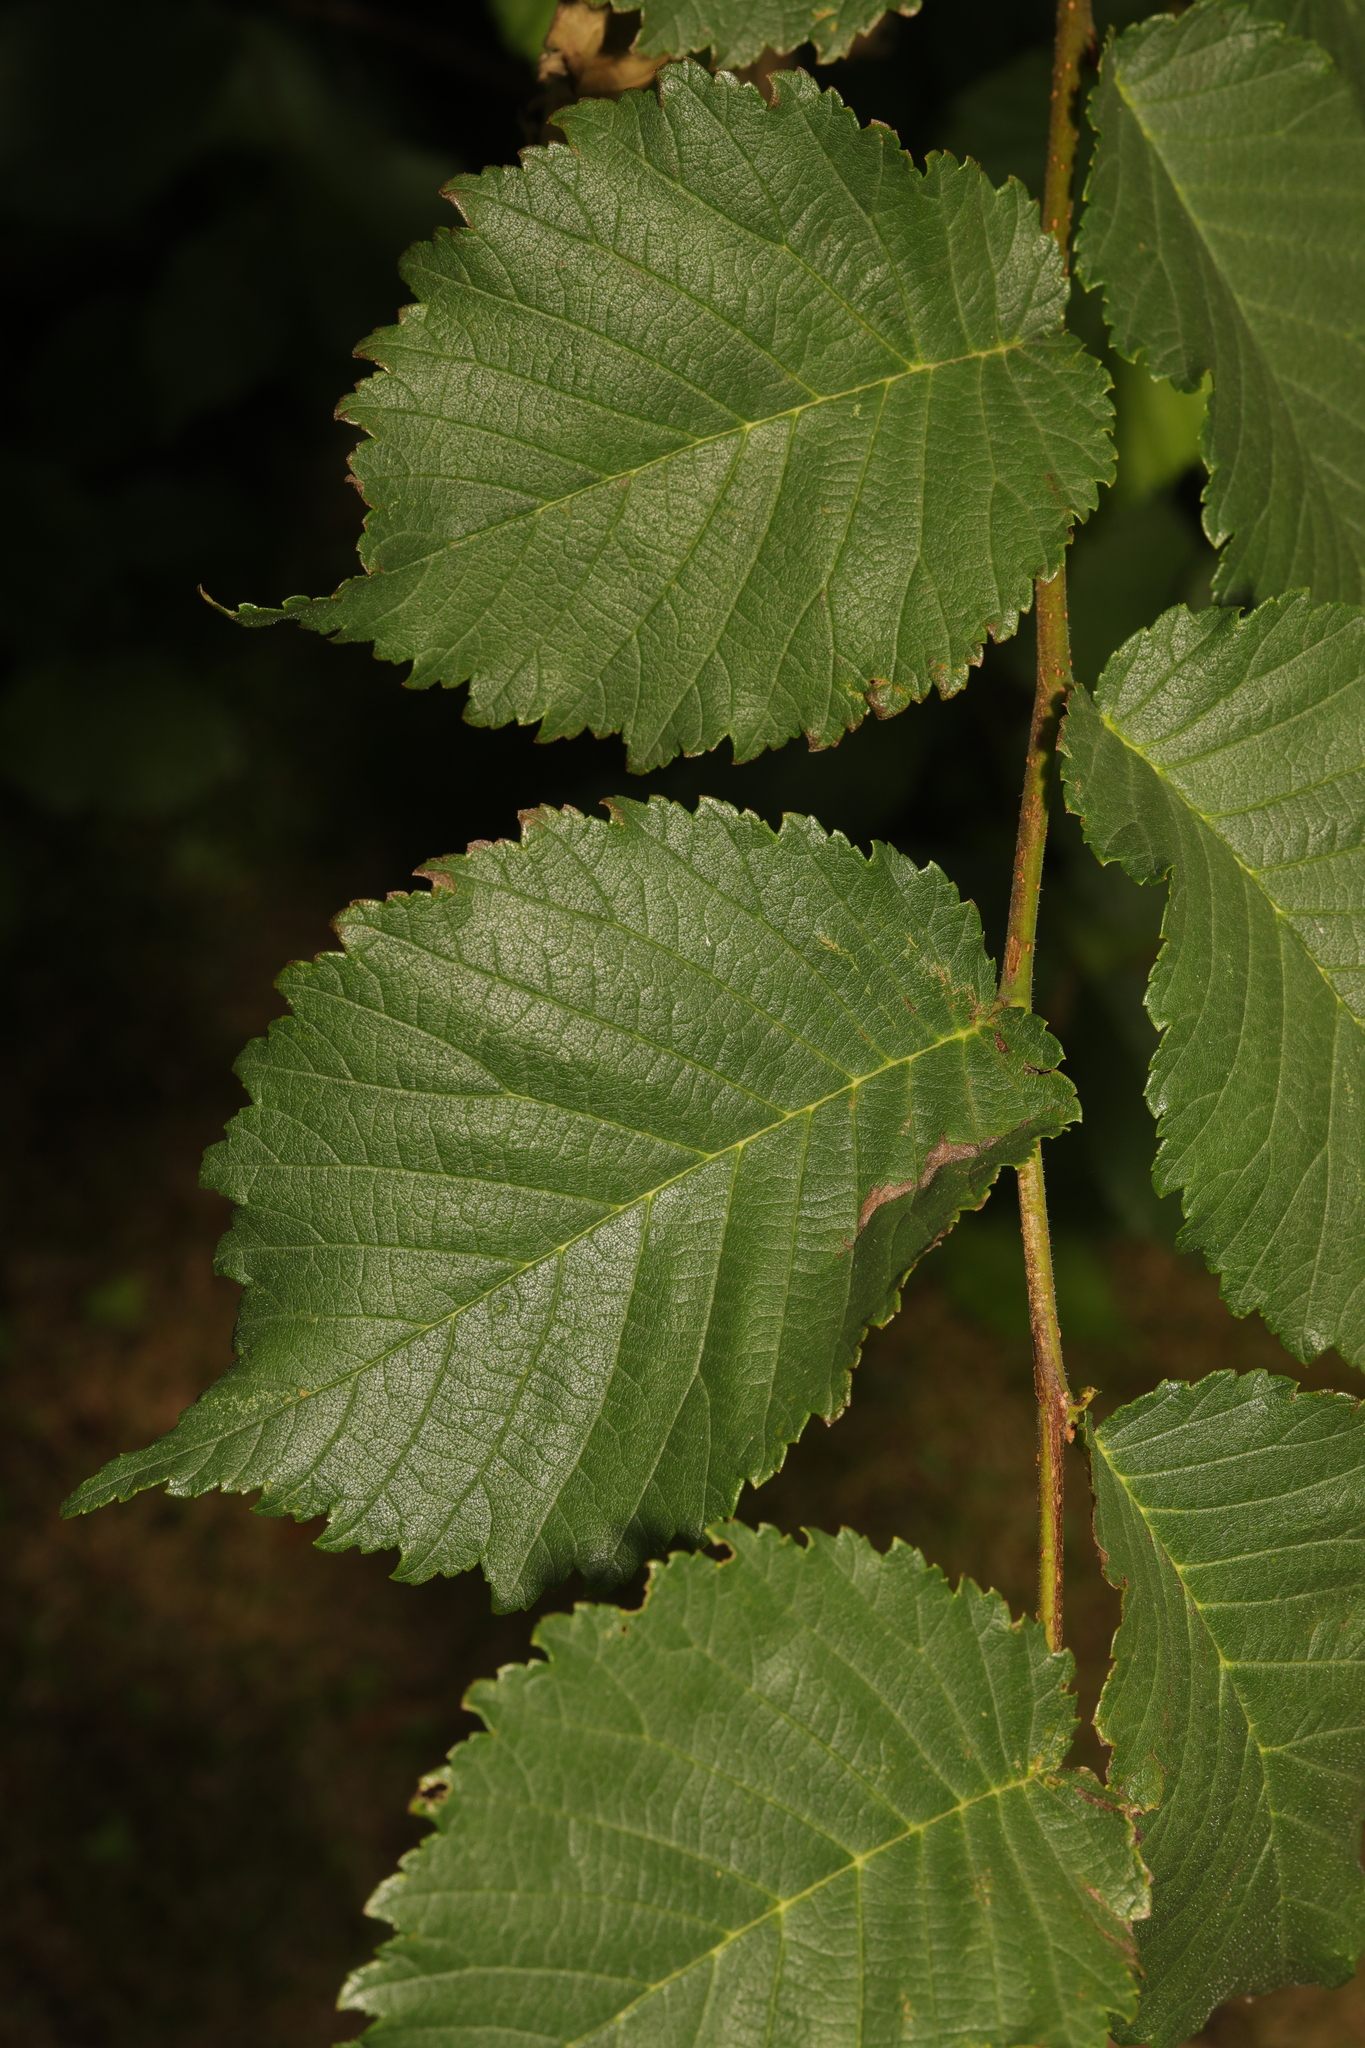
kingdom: Plantae
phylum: Tracheophyta
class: Magnoliopsida
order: Rosales
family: Ulmaceae
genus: Ulmus
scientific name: Ulmus glabra
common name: Wych elm
